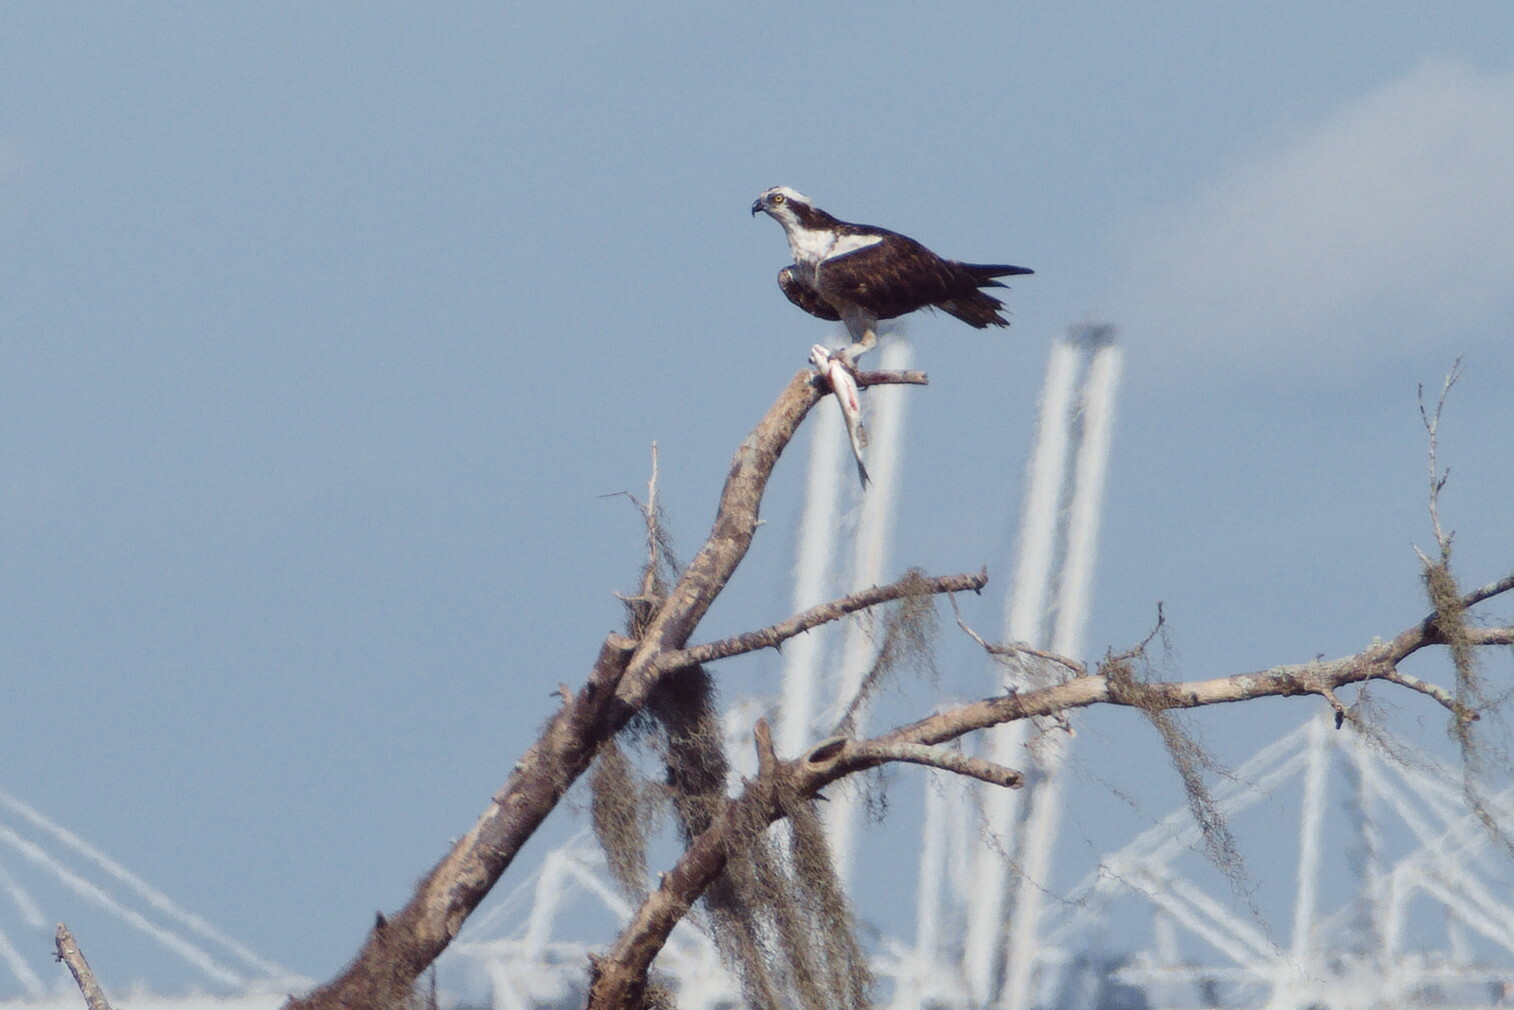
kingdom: Animalia
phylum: Chordata
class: Aves
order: Accipitriformes
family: Pandionidae
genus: Pandion
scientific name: Pandion haliaetus
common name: Osprey
